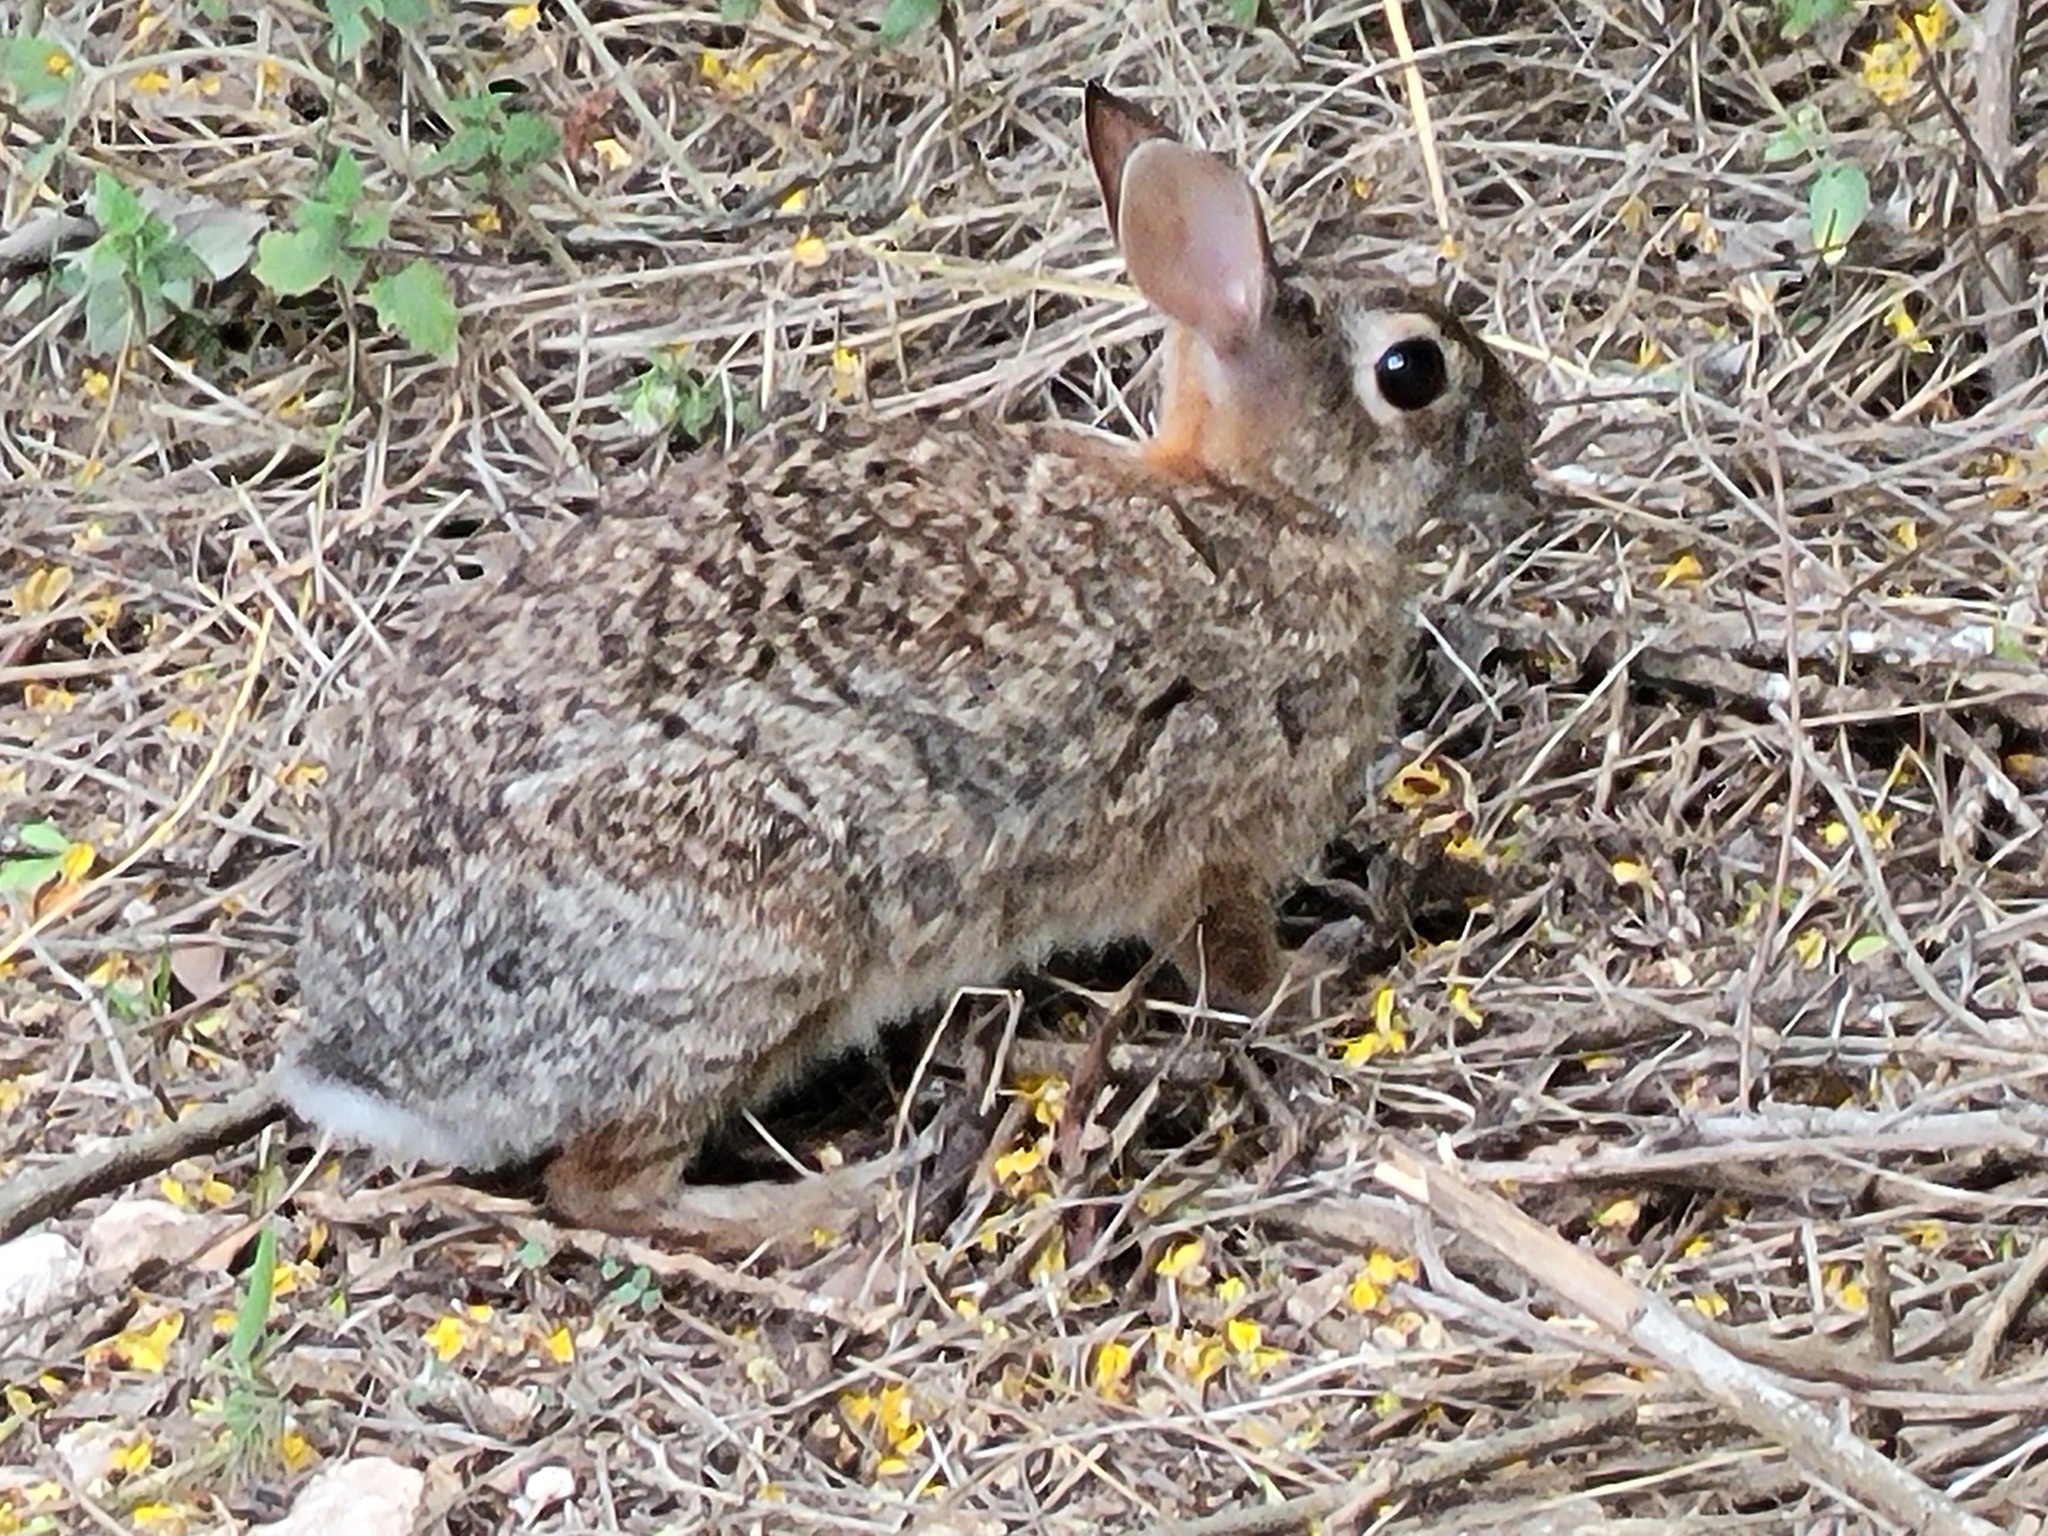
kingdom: Animalia
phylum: Chordata
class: Mammalia
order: Lagomorpha
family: Leporidae
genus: Sylvilagus
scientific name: Sylvilagus floridanus
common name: Eastern cottontail
